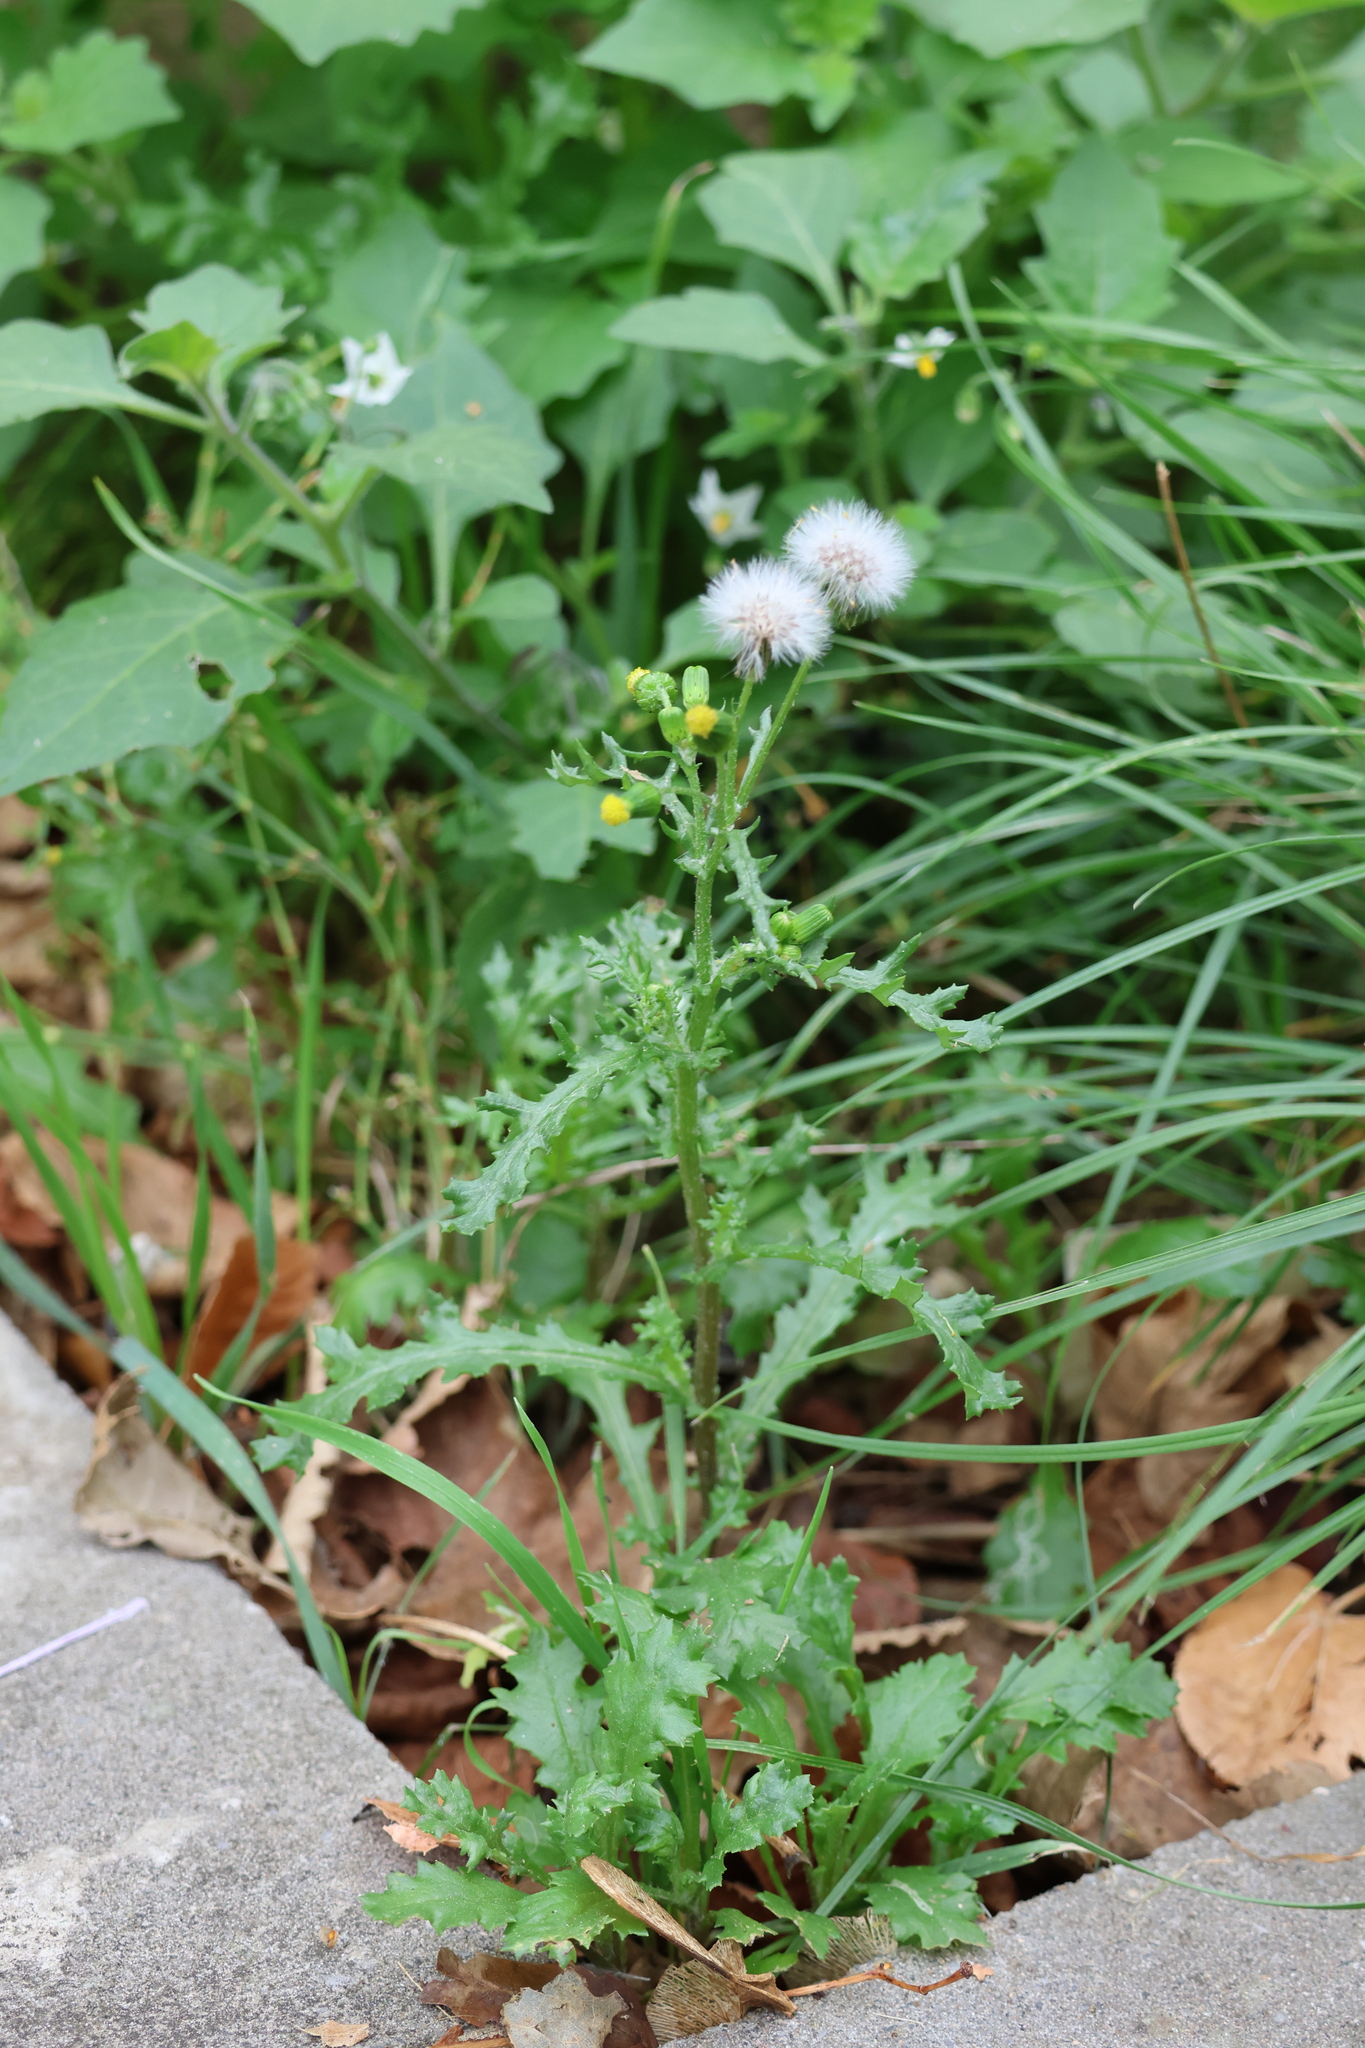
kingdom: Plantae
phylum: Tracheophyta
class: Magnoliopsida
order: Asterales
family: Asteraceae
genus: Senecio
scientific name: Senecio vulgaris
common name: Old-man-in-the-spring
